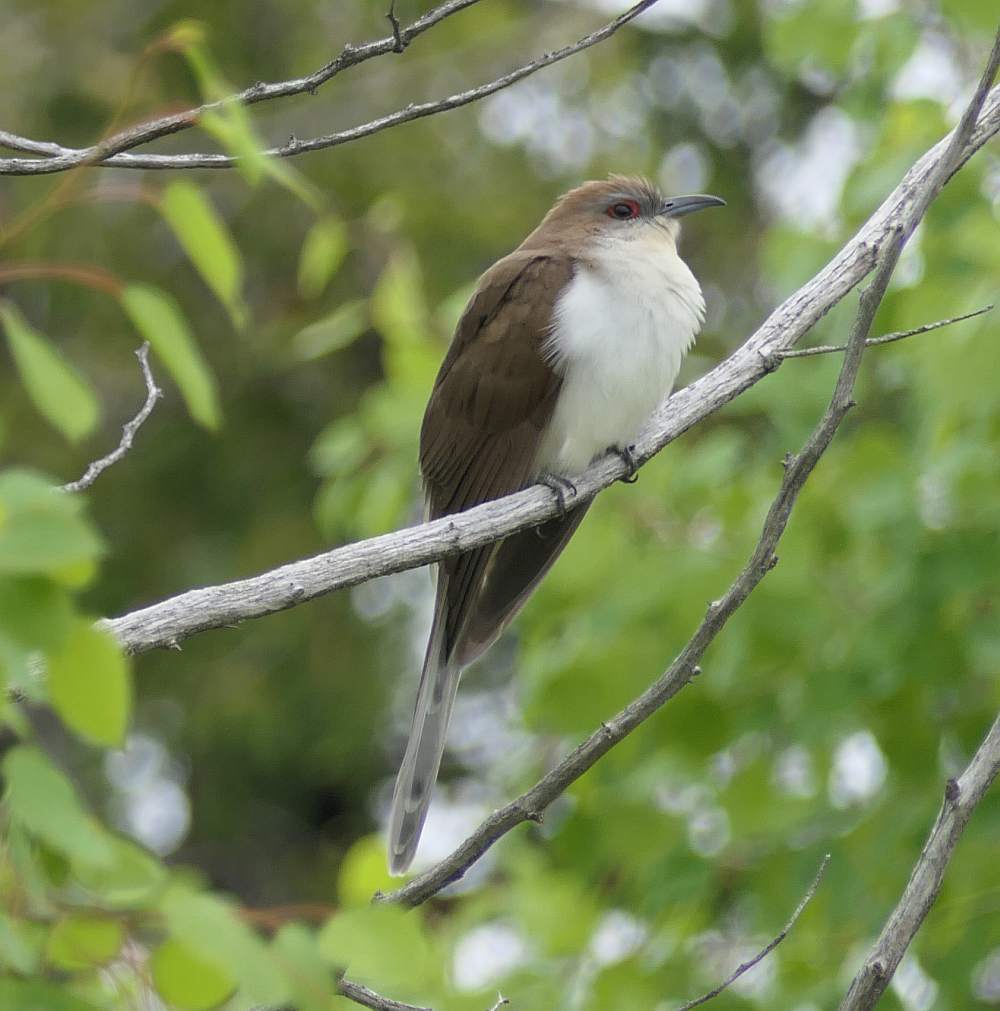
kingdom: Animalia
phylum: Chordata
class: Aves
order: Cuculiformes
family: Cuculidae
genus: Coccyzus
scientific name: Coccyzus erythropthalmus
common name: Black-billed cuckoo
